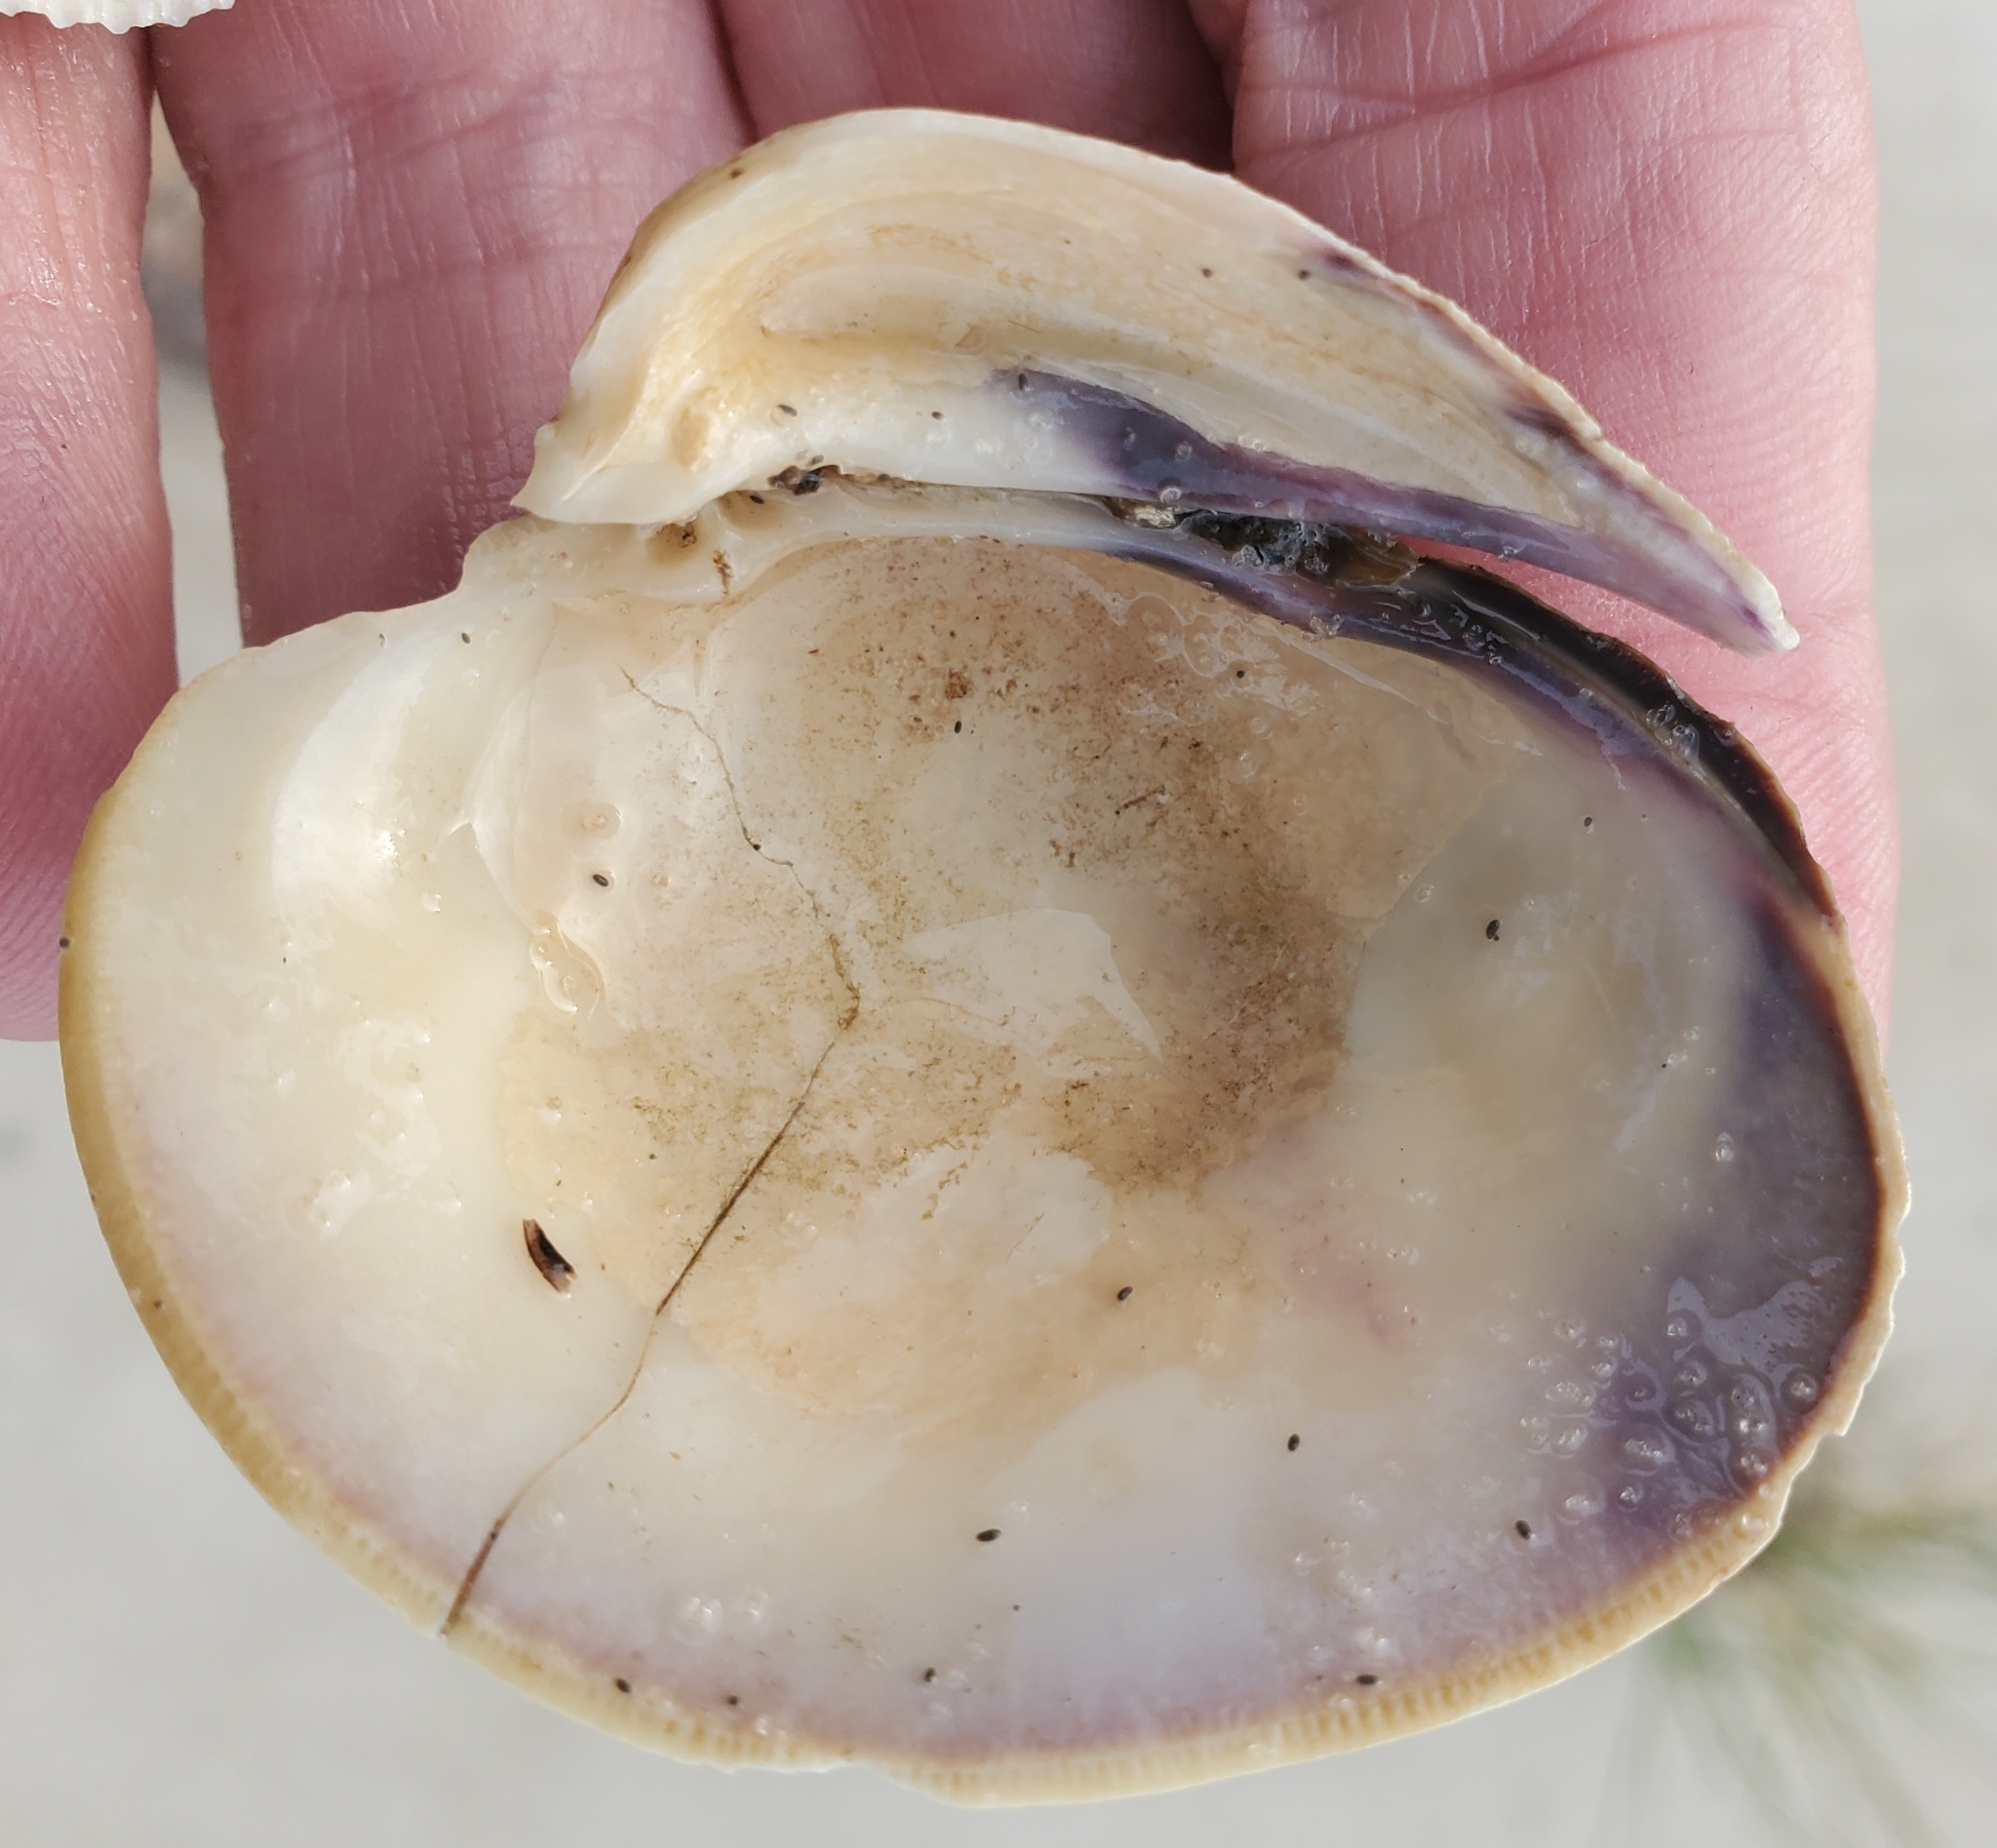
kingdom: Animalia
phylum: Mollusca
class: Bivalvia
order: Venerida
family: Veneridae
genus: Mercenaria
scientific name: Mercenaria mercenaria
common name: American hard-shelled clam
